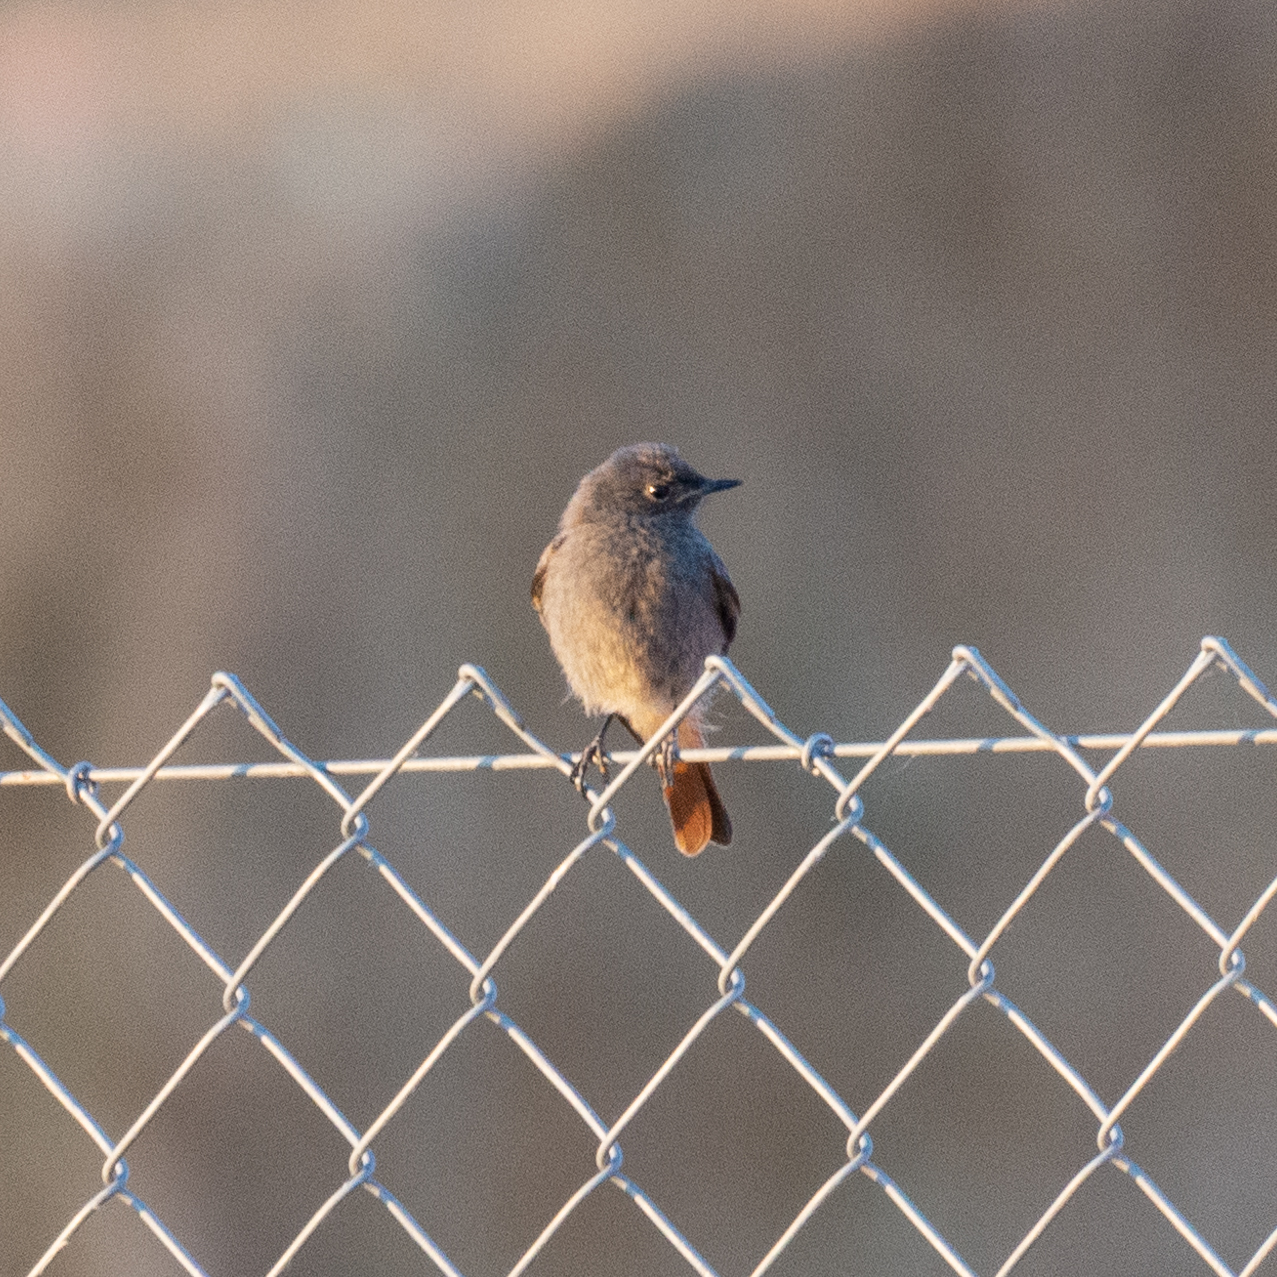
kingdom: Animalia
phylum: Chordata
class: Aves
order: Passeriformes
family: Muscicapidae
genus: Phoenicurus
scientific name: Phoenicurus ochruros
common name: Black redstart
